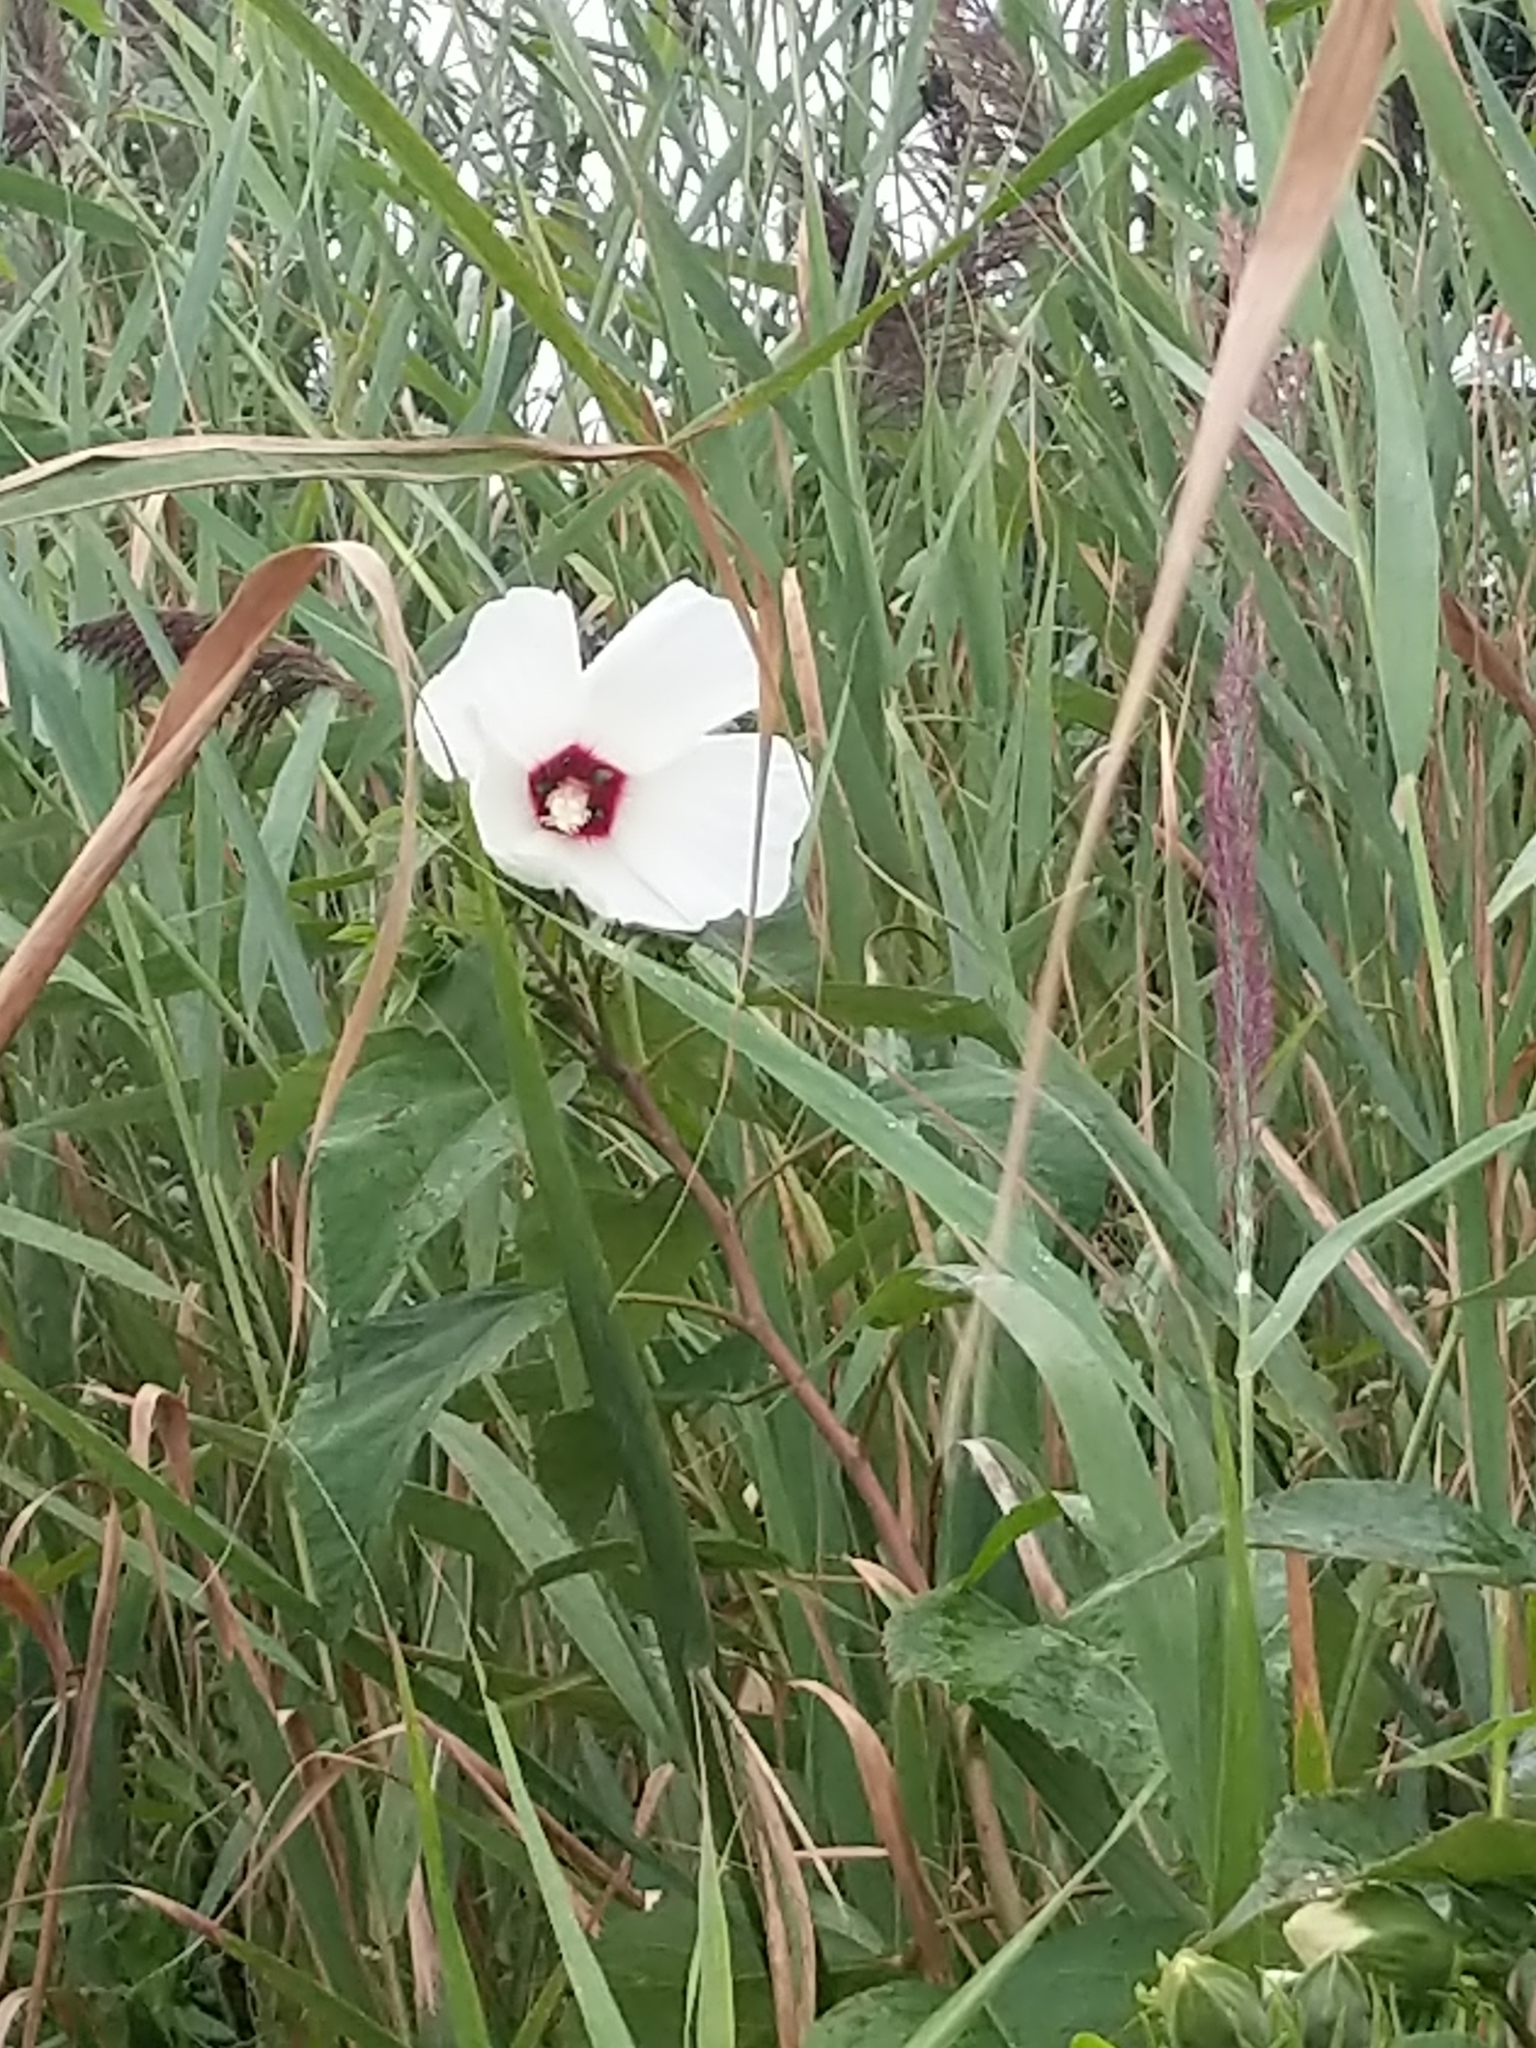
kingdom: Plantae
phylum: Tracheophyta
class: Magnoliopsida
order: Malvales
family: Malvaceae
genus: Hibiscus
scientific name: Hibiscus moscheutos
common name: Common rose-mallow
